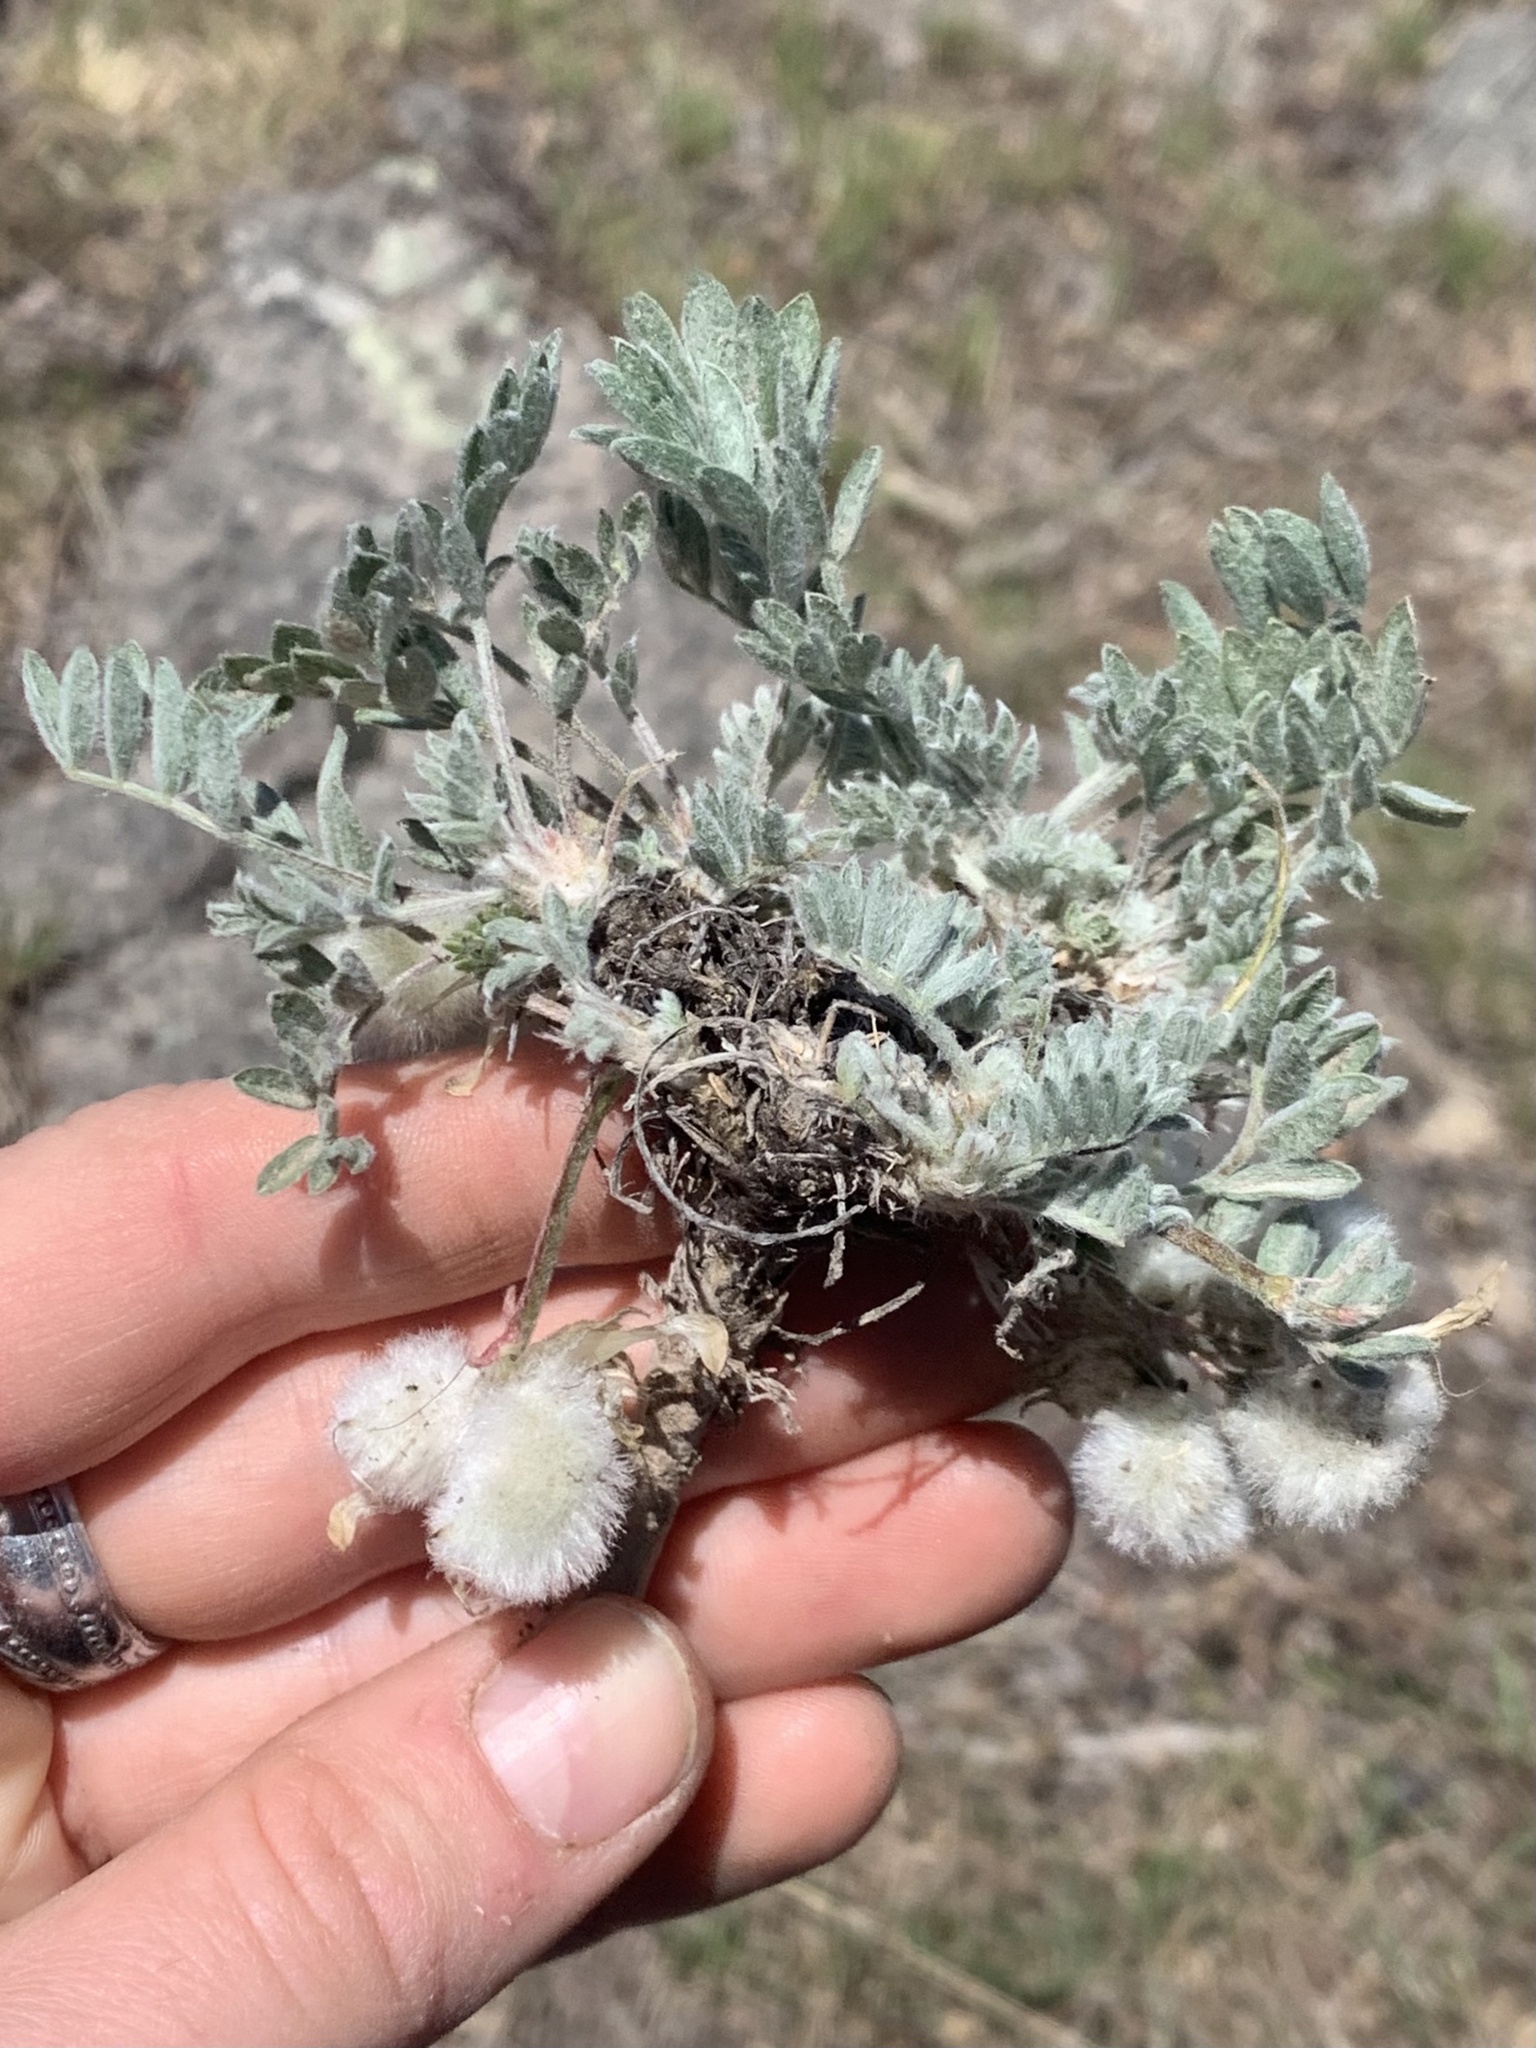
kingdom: Plantae
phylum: Tracheophyta
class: Magnoliopsida
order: Fabales
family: Fabaceae
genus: Astragalus
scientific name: Astragalus purshii
